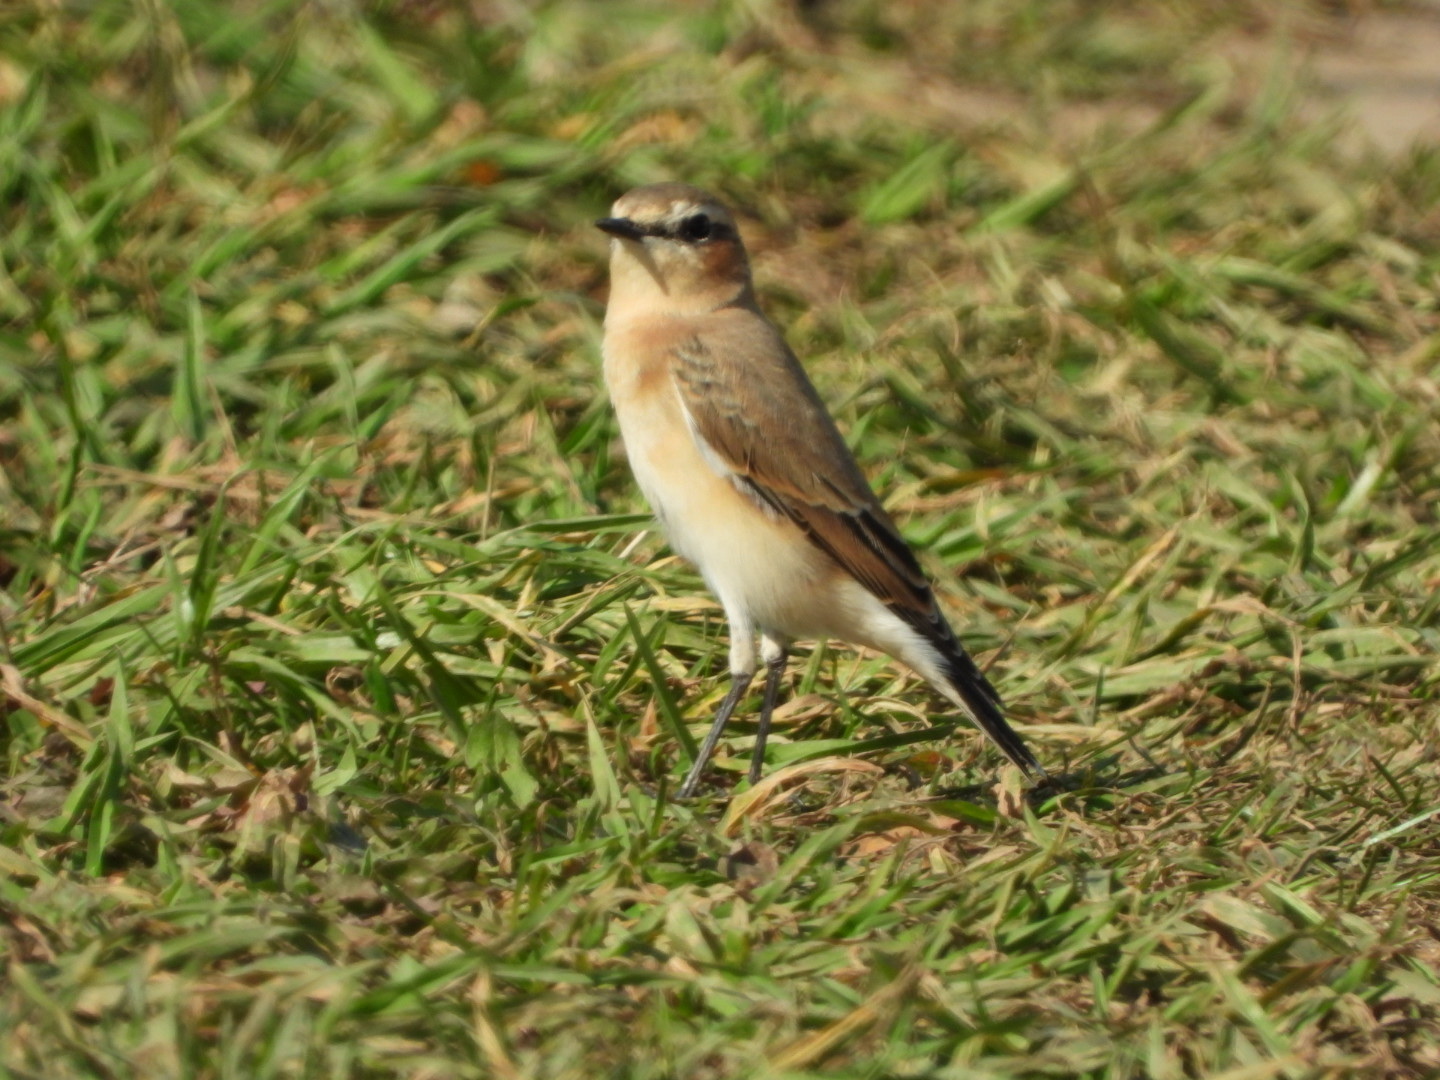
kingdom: Animalia
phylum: Chordata
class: Aves
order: Passeriformes
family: Muscicapidae
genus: Oenanthe
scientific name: Oenanthe oenanthe
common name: Northern wheatear
